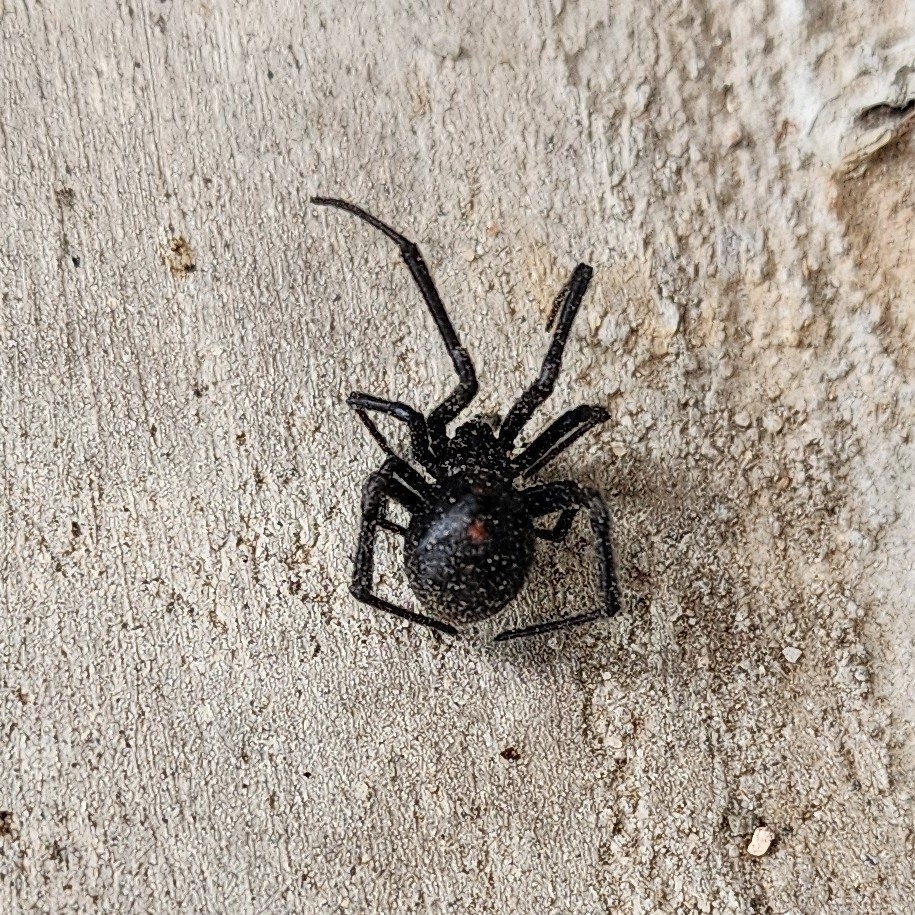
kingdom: Animalia
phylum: Arthropoda
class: Arachnida
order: Araneae
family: Theridiidae
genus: Latrodectus
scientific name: Latrodectus mactans
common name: Cobweb spiders
